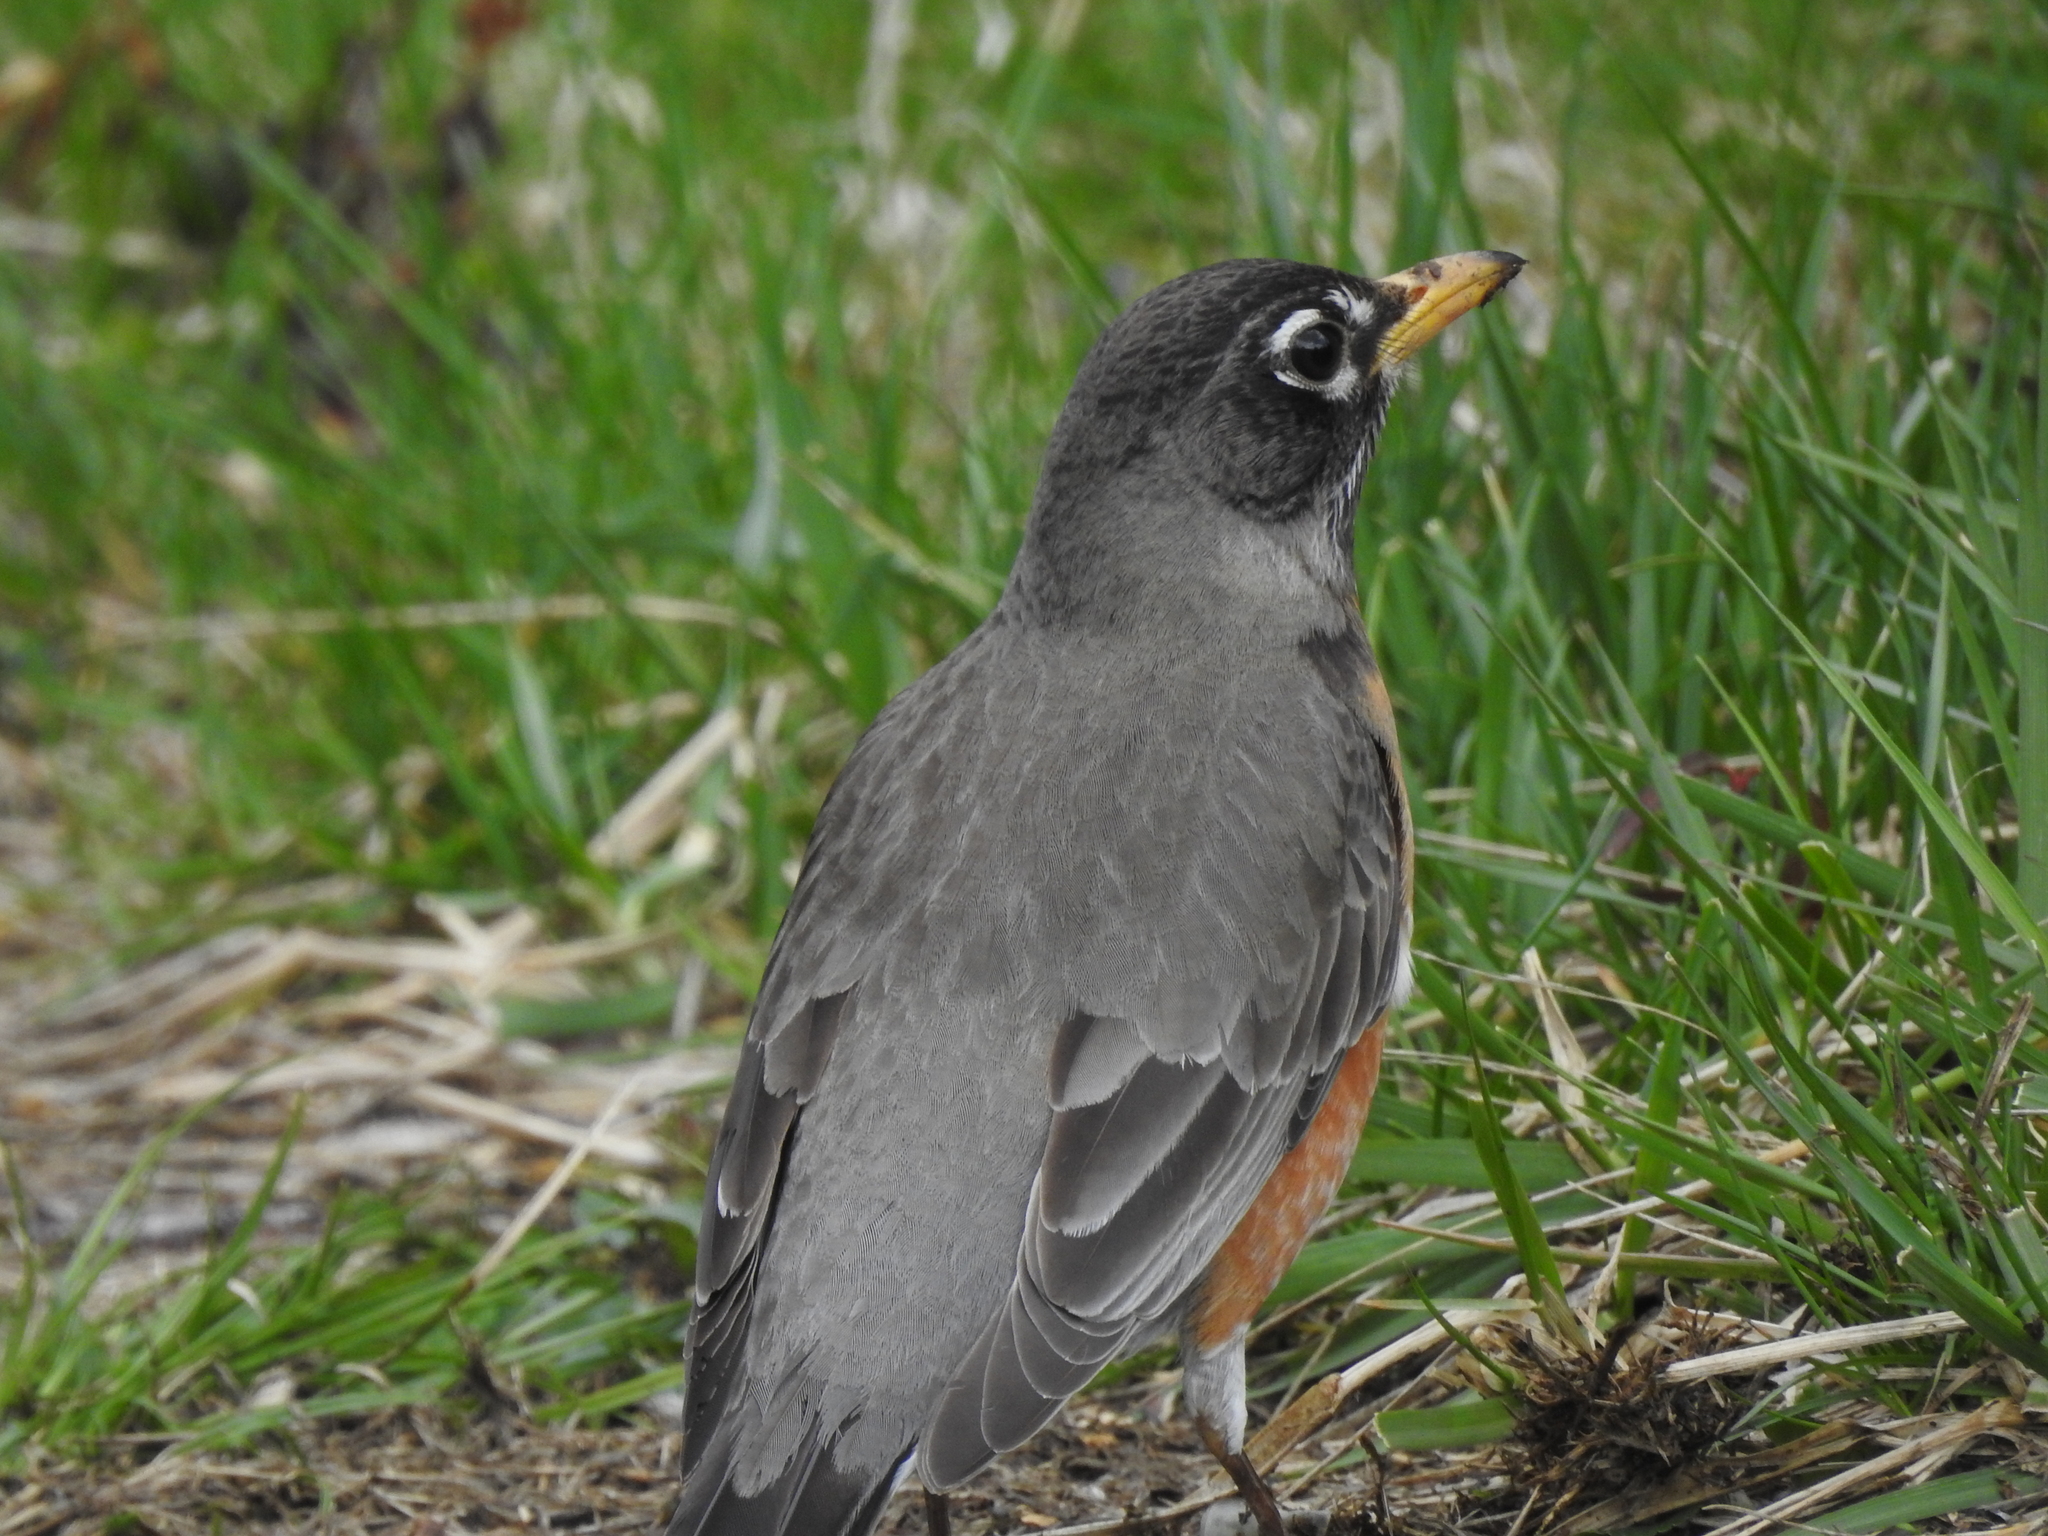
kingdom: Animalia
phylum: Chordata
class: Aves
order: Passeriformes
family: Turdidae
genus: Turdus
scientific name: Turdus migratorius
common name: American robin
